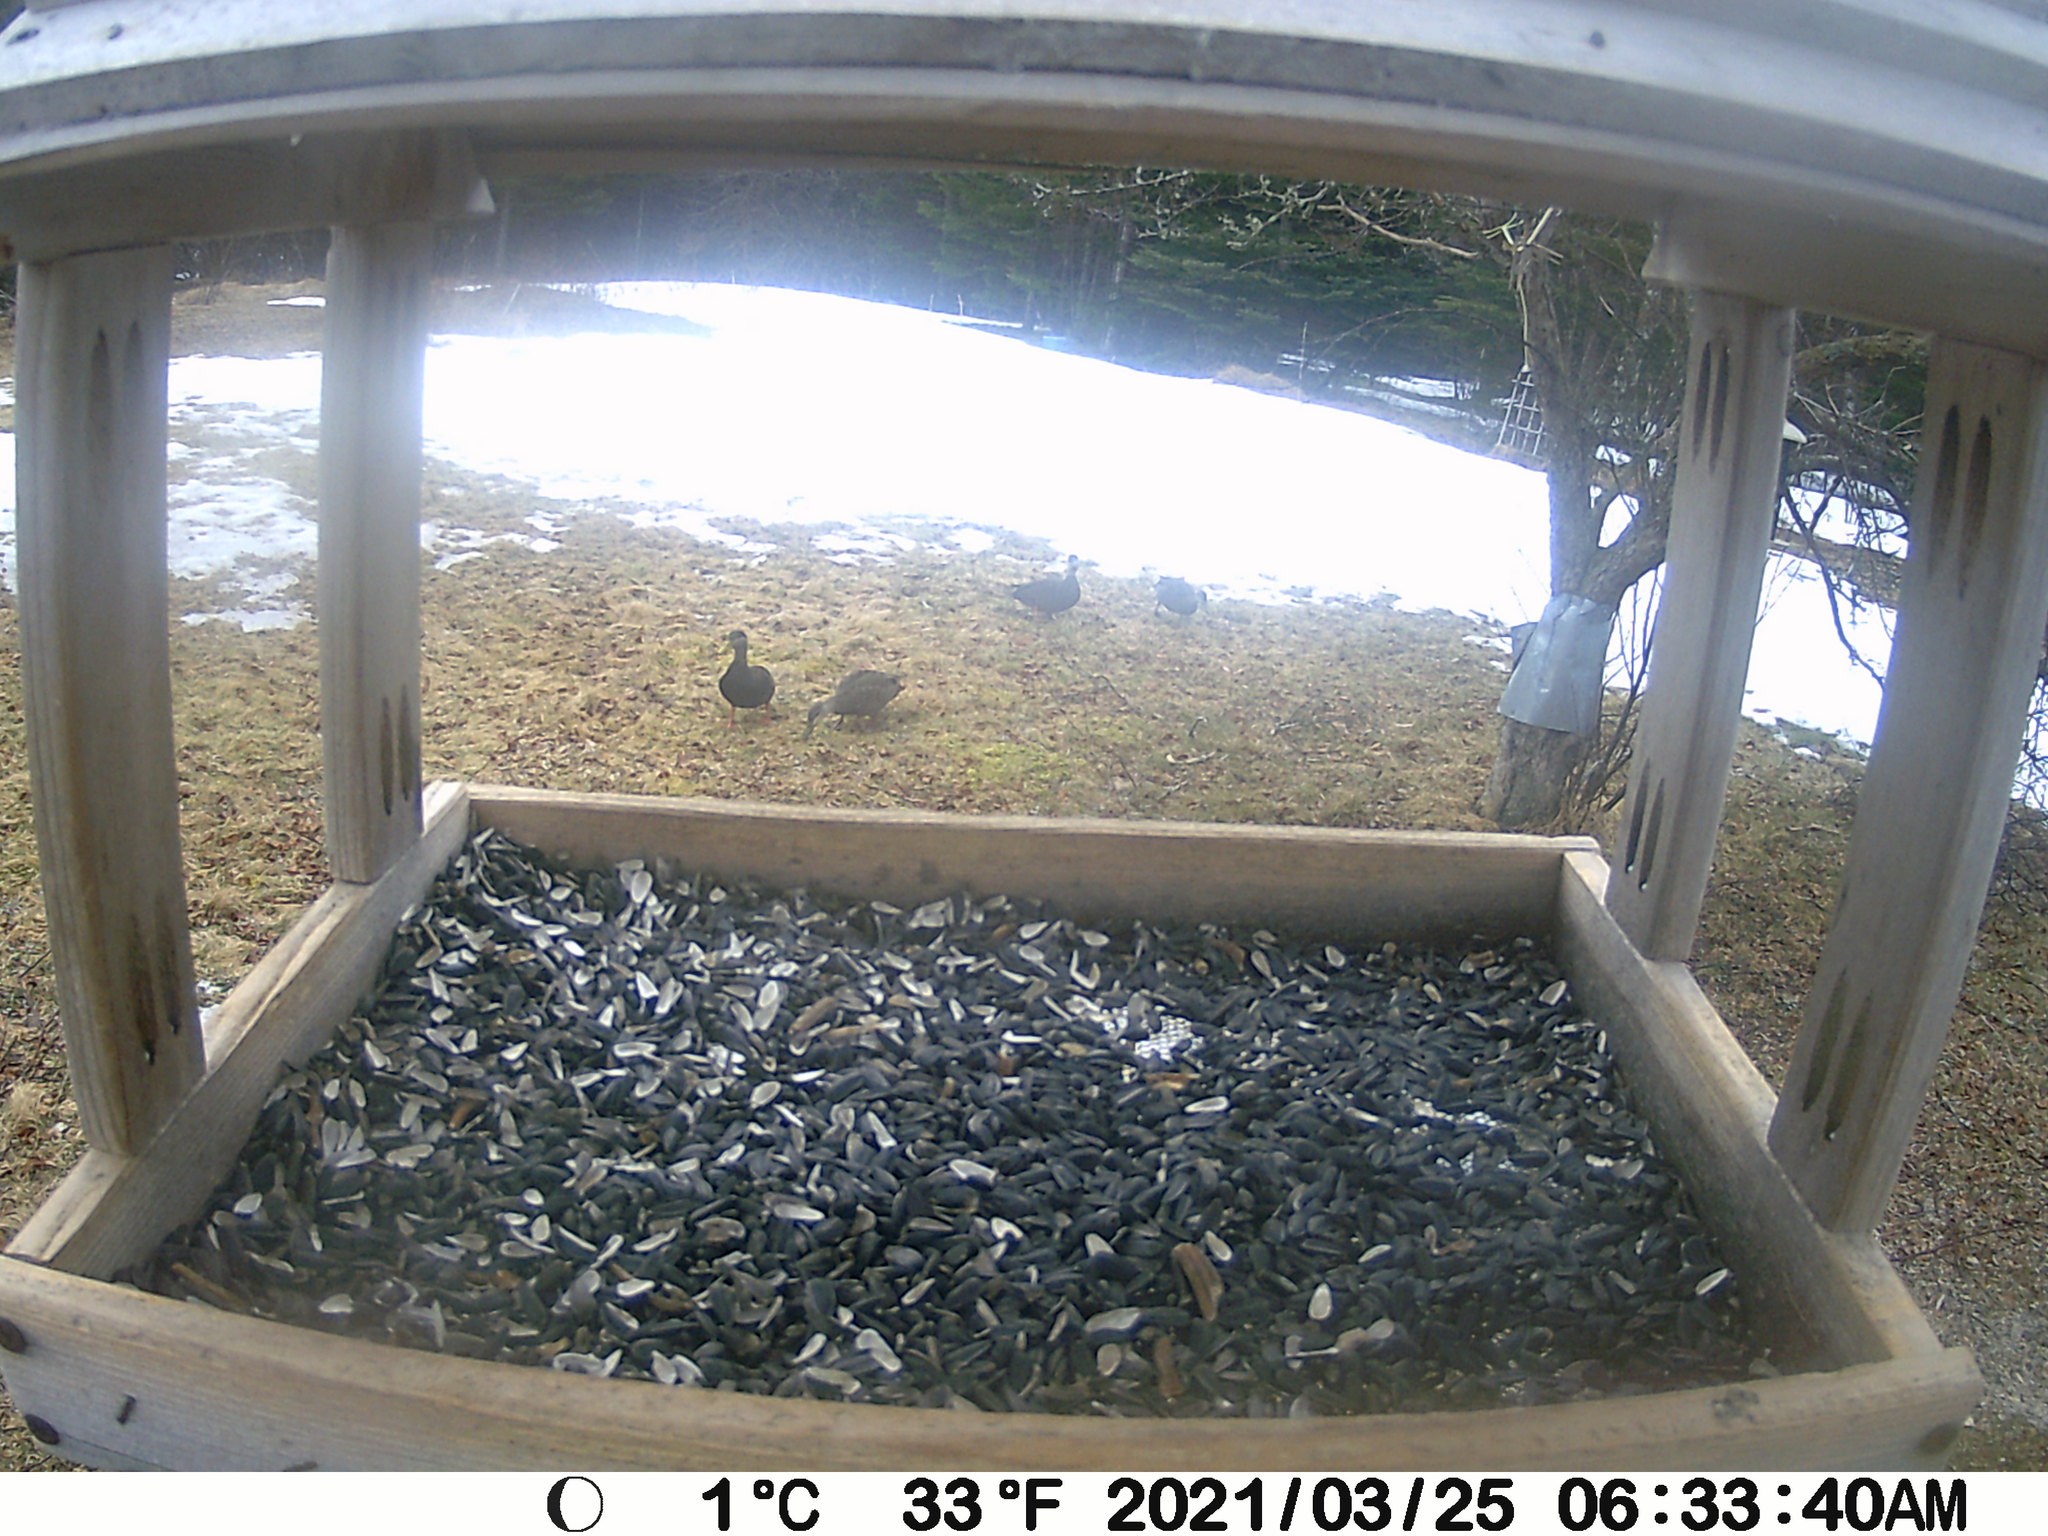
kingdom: Animalia
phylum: Chordata
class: Aves
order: Anseriformes
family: Anatidae
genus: Anas
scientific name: Anas rubripes
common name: American black duck
